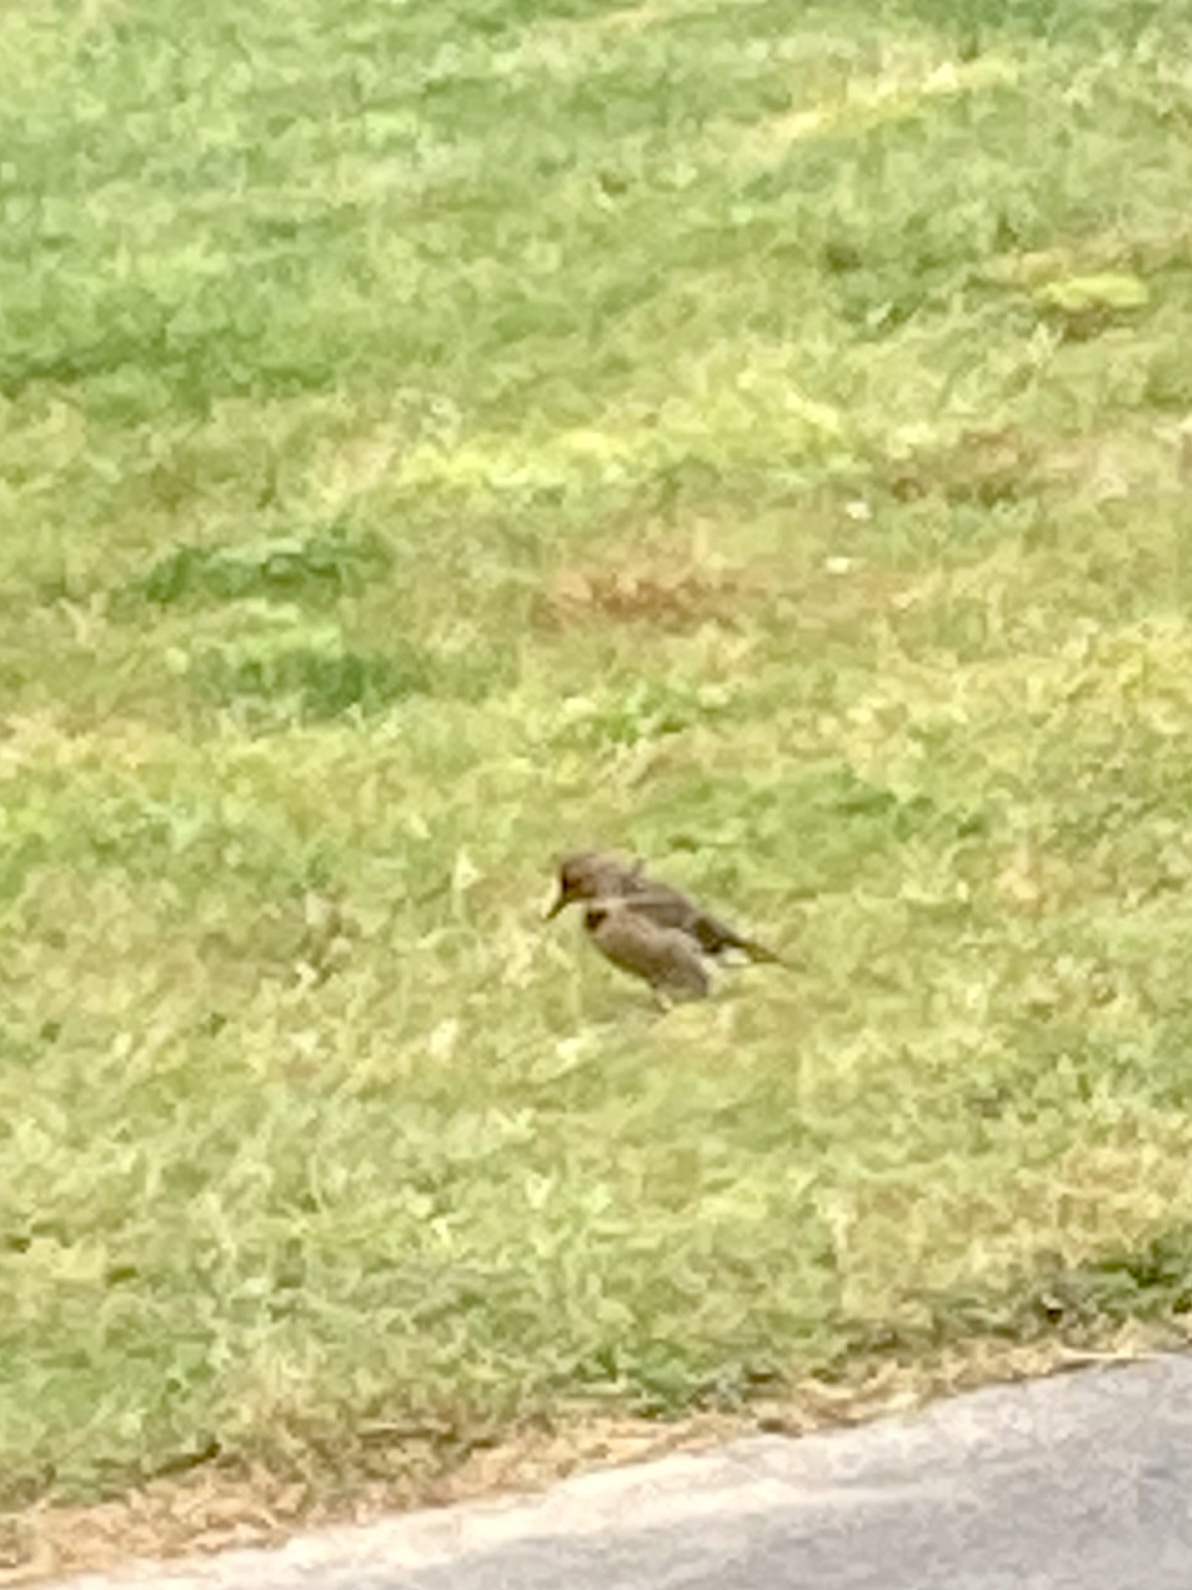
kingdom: Animalia
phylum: Chordata
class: Aves
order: Piciformes
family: Picidae
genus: Colaptes
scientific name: Colaptes auratus
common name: Northern flicker
